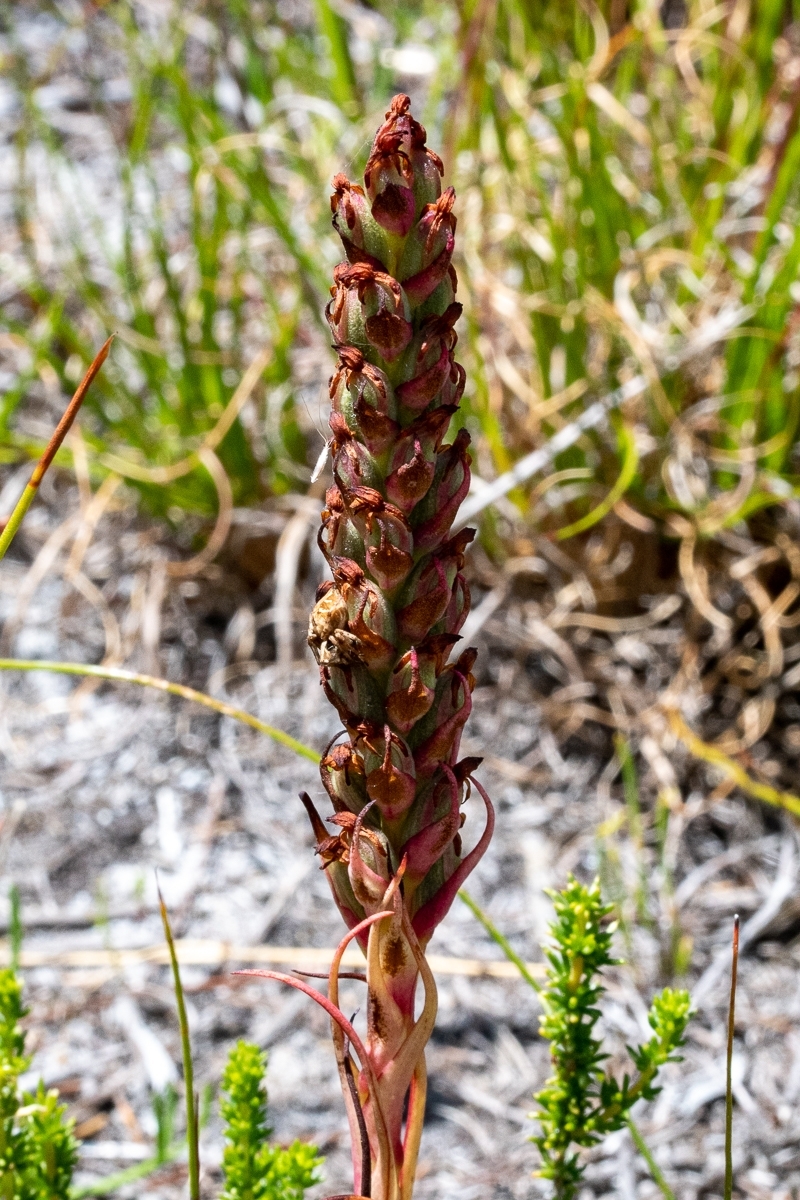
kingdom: Plantae
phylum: Tracheophyta
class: Liliopsida
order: Asparagales
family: Orchidaceae
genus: Disa
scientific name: Disa bracteata
